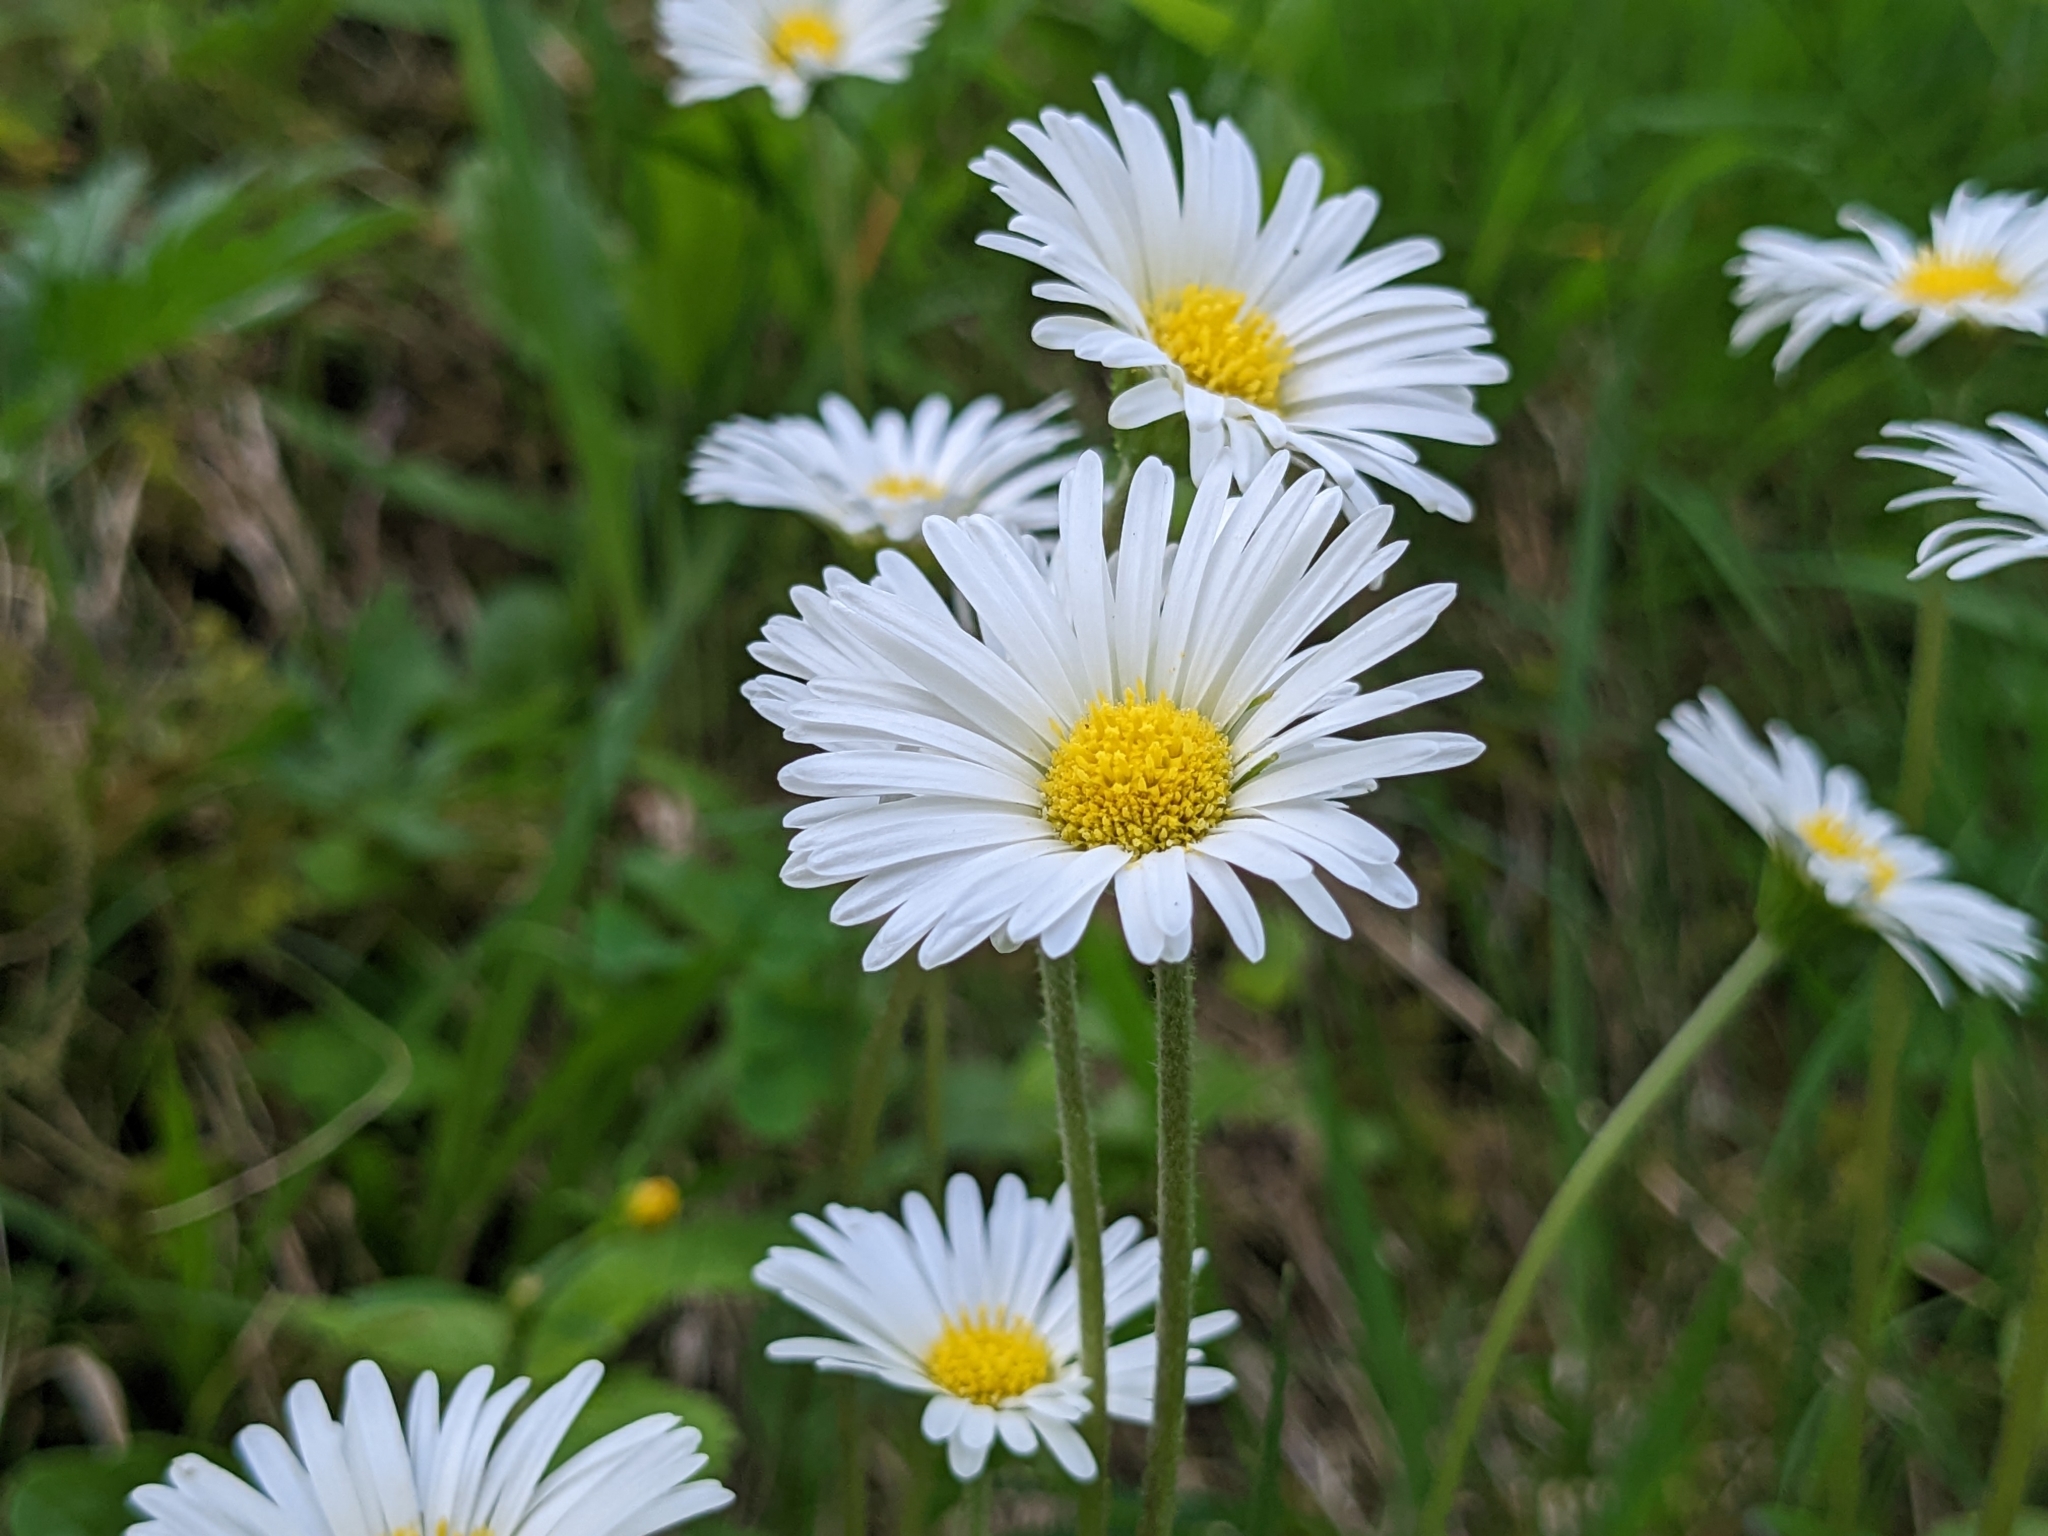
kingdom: Plantae
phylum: Tracheophyta
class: Magnoliopsida
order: Asterales
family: Asteraceae
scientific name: Asteraceae
